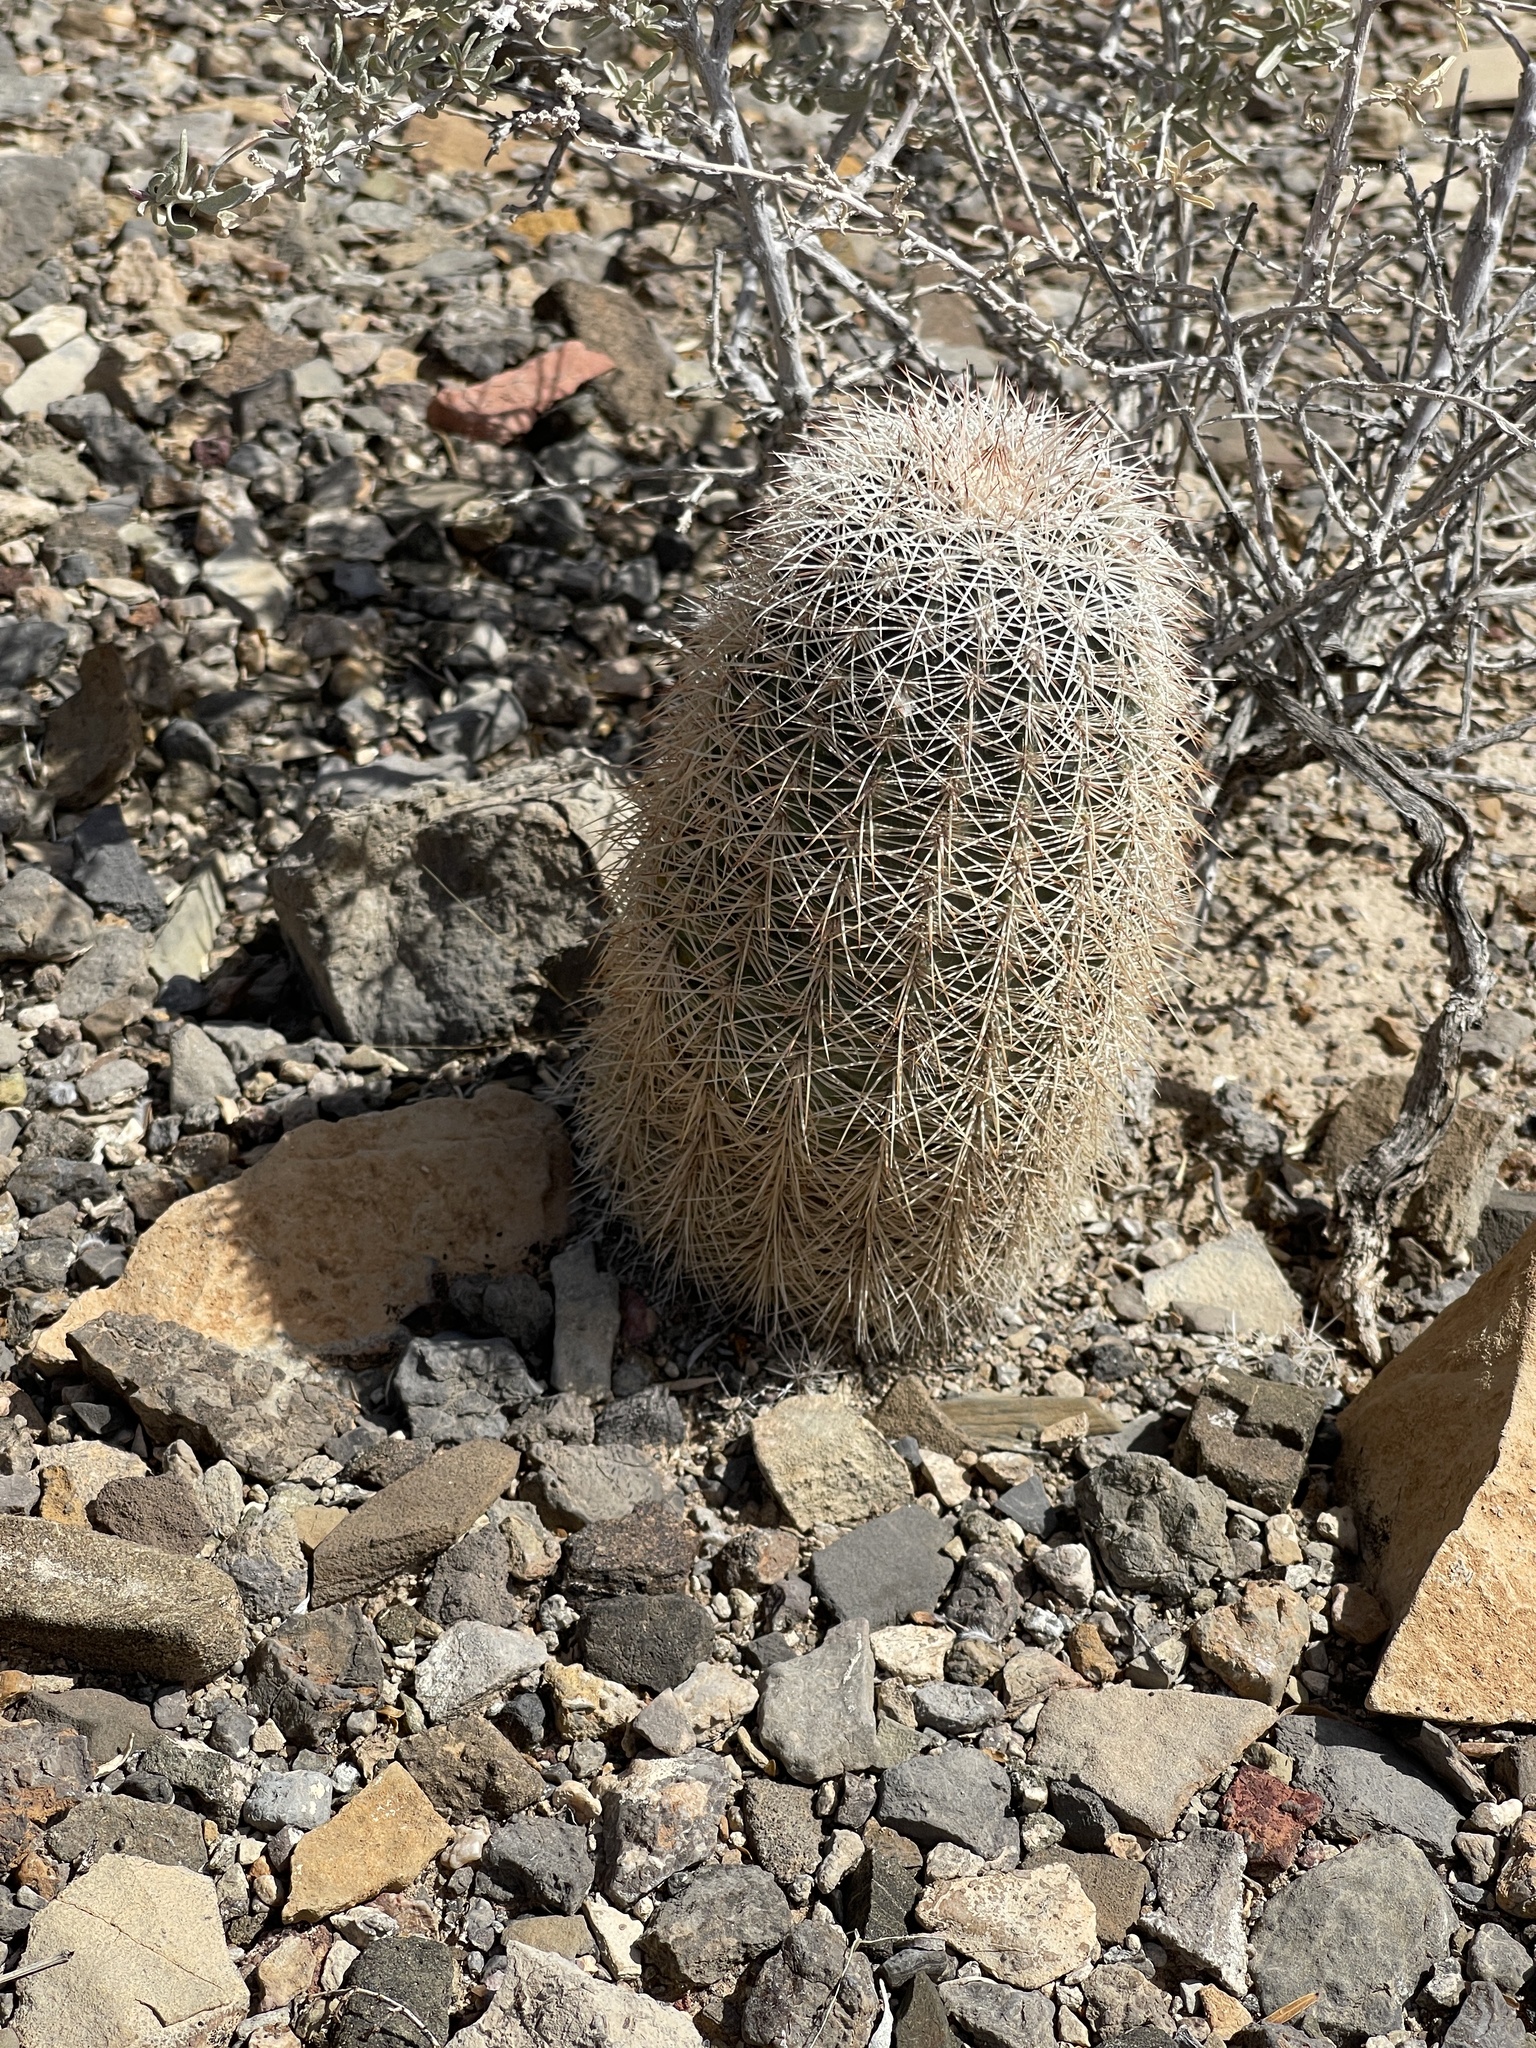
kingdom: Plantae
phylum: Tracheophyta
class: Magnoliopsida
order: Caryophyllales
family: Cactaceae
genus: Echinocereus
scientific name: Echinocereus dasyacanthus
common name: Spiny hedgehog cactus
